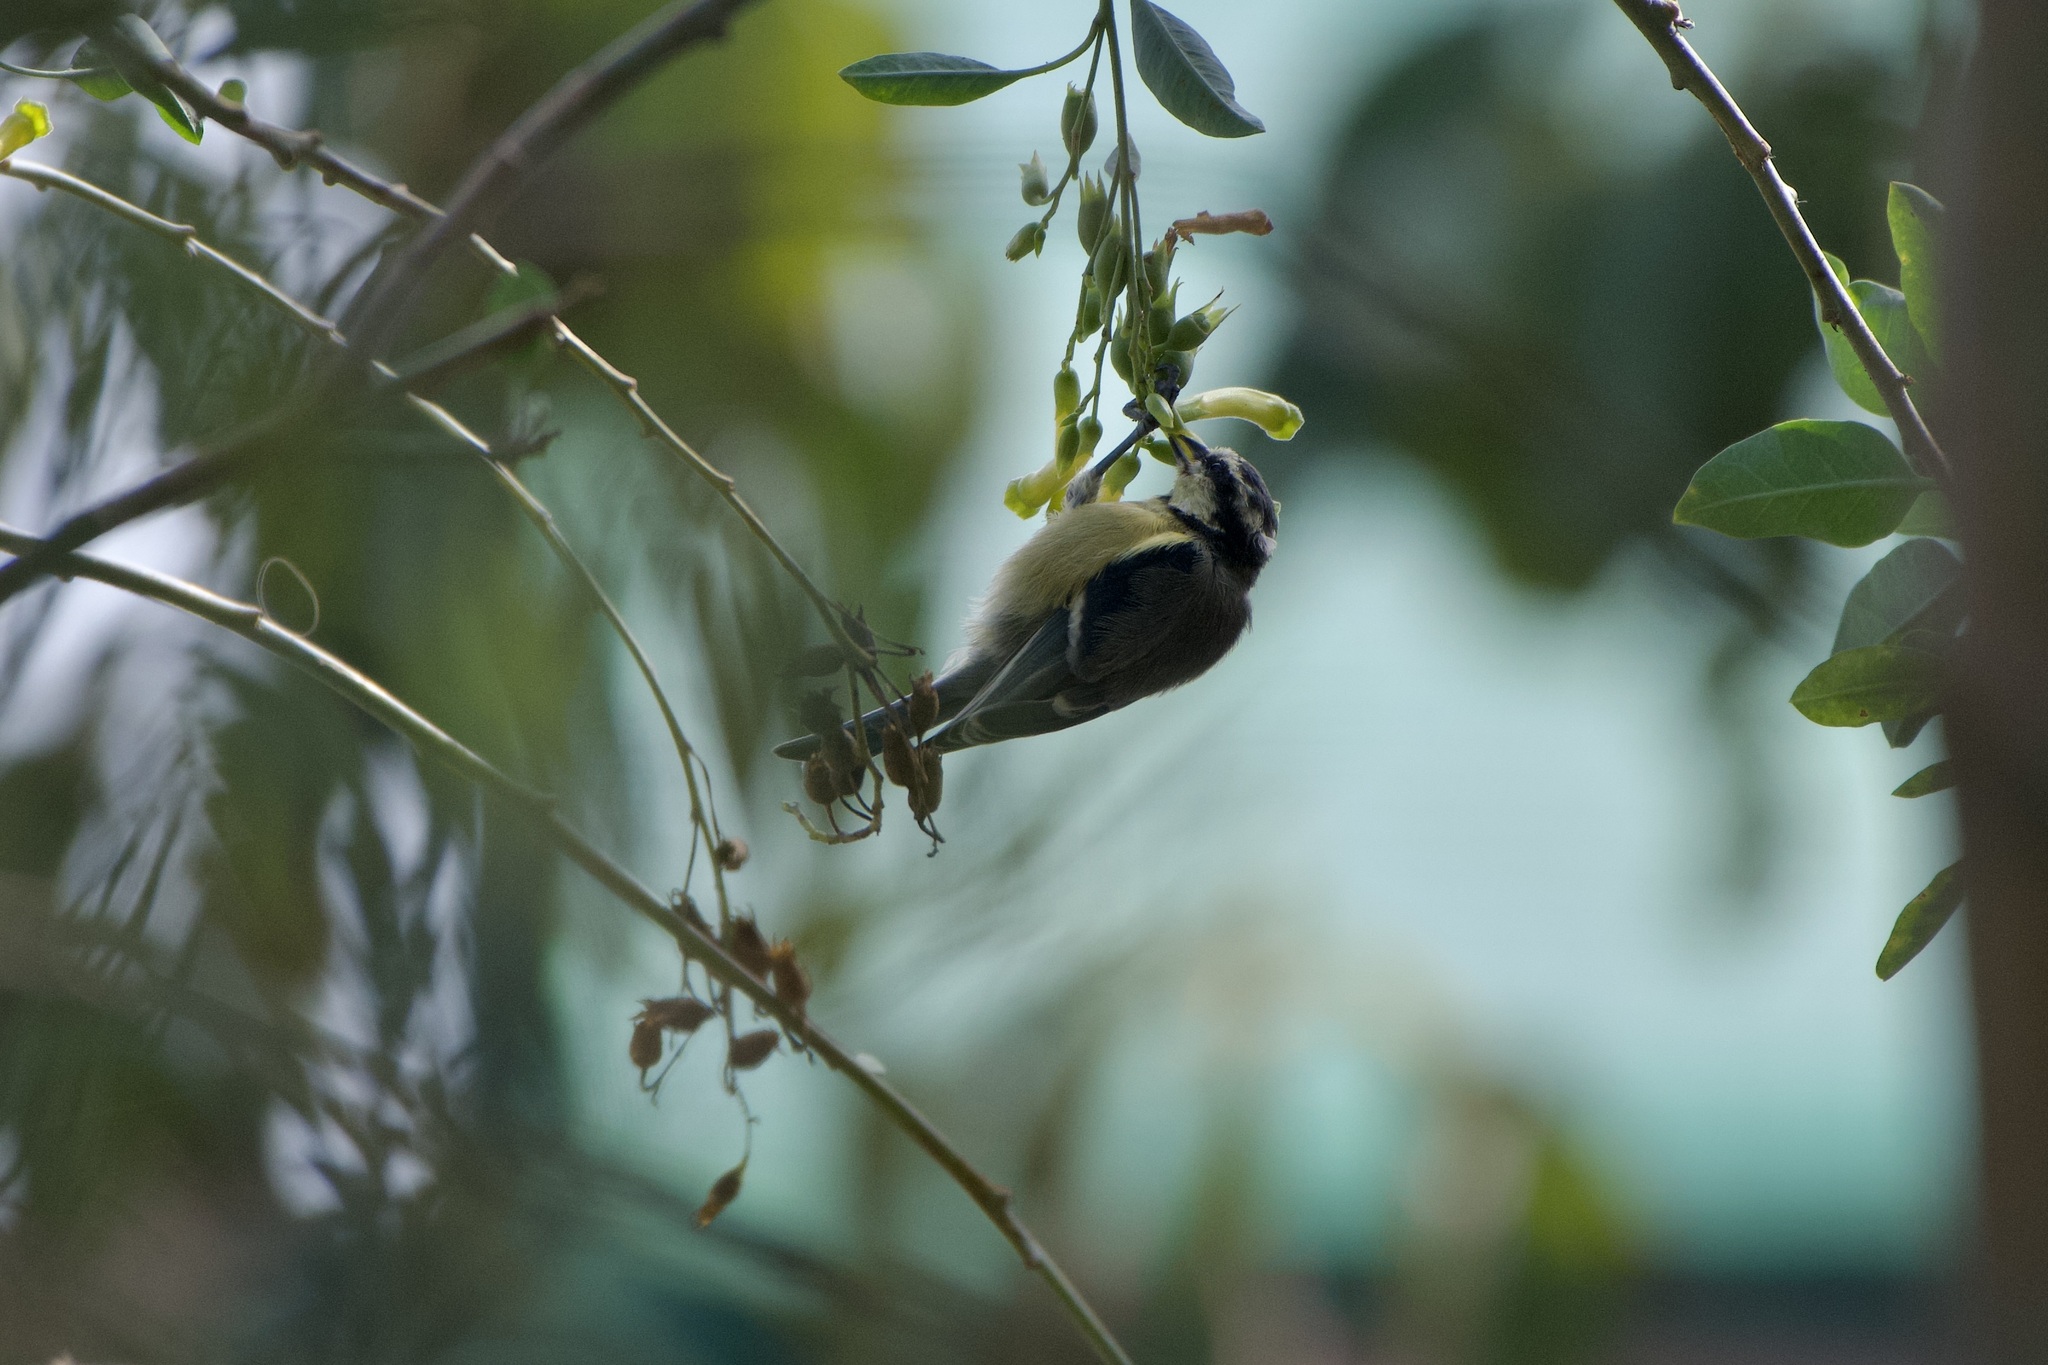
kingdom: Animalia
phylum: Chordata
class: Aves
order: Passeriformes
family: Paridae
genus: Cyanistes
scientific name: Cyanistes teneriffae
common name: African blue tit
